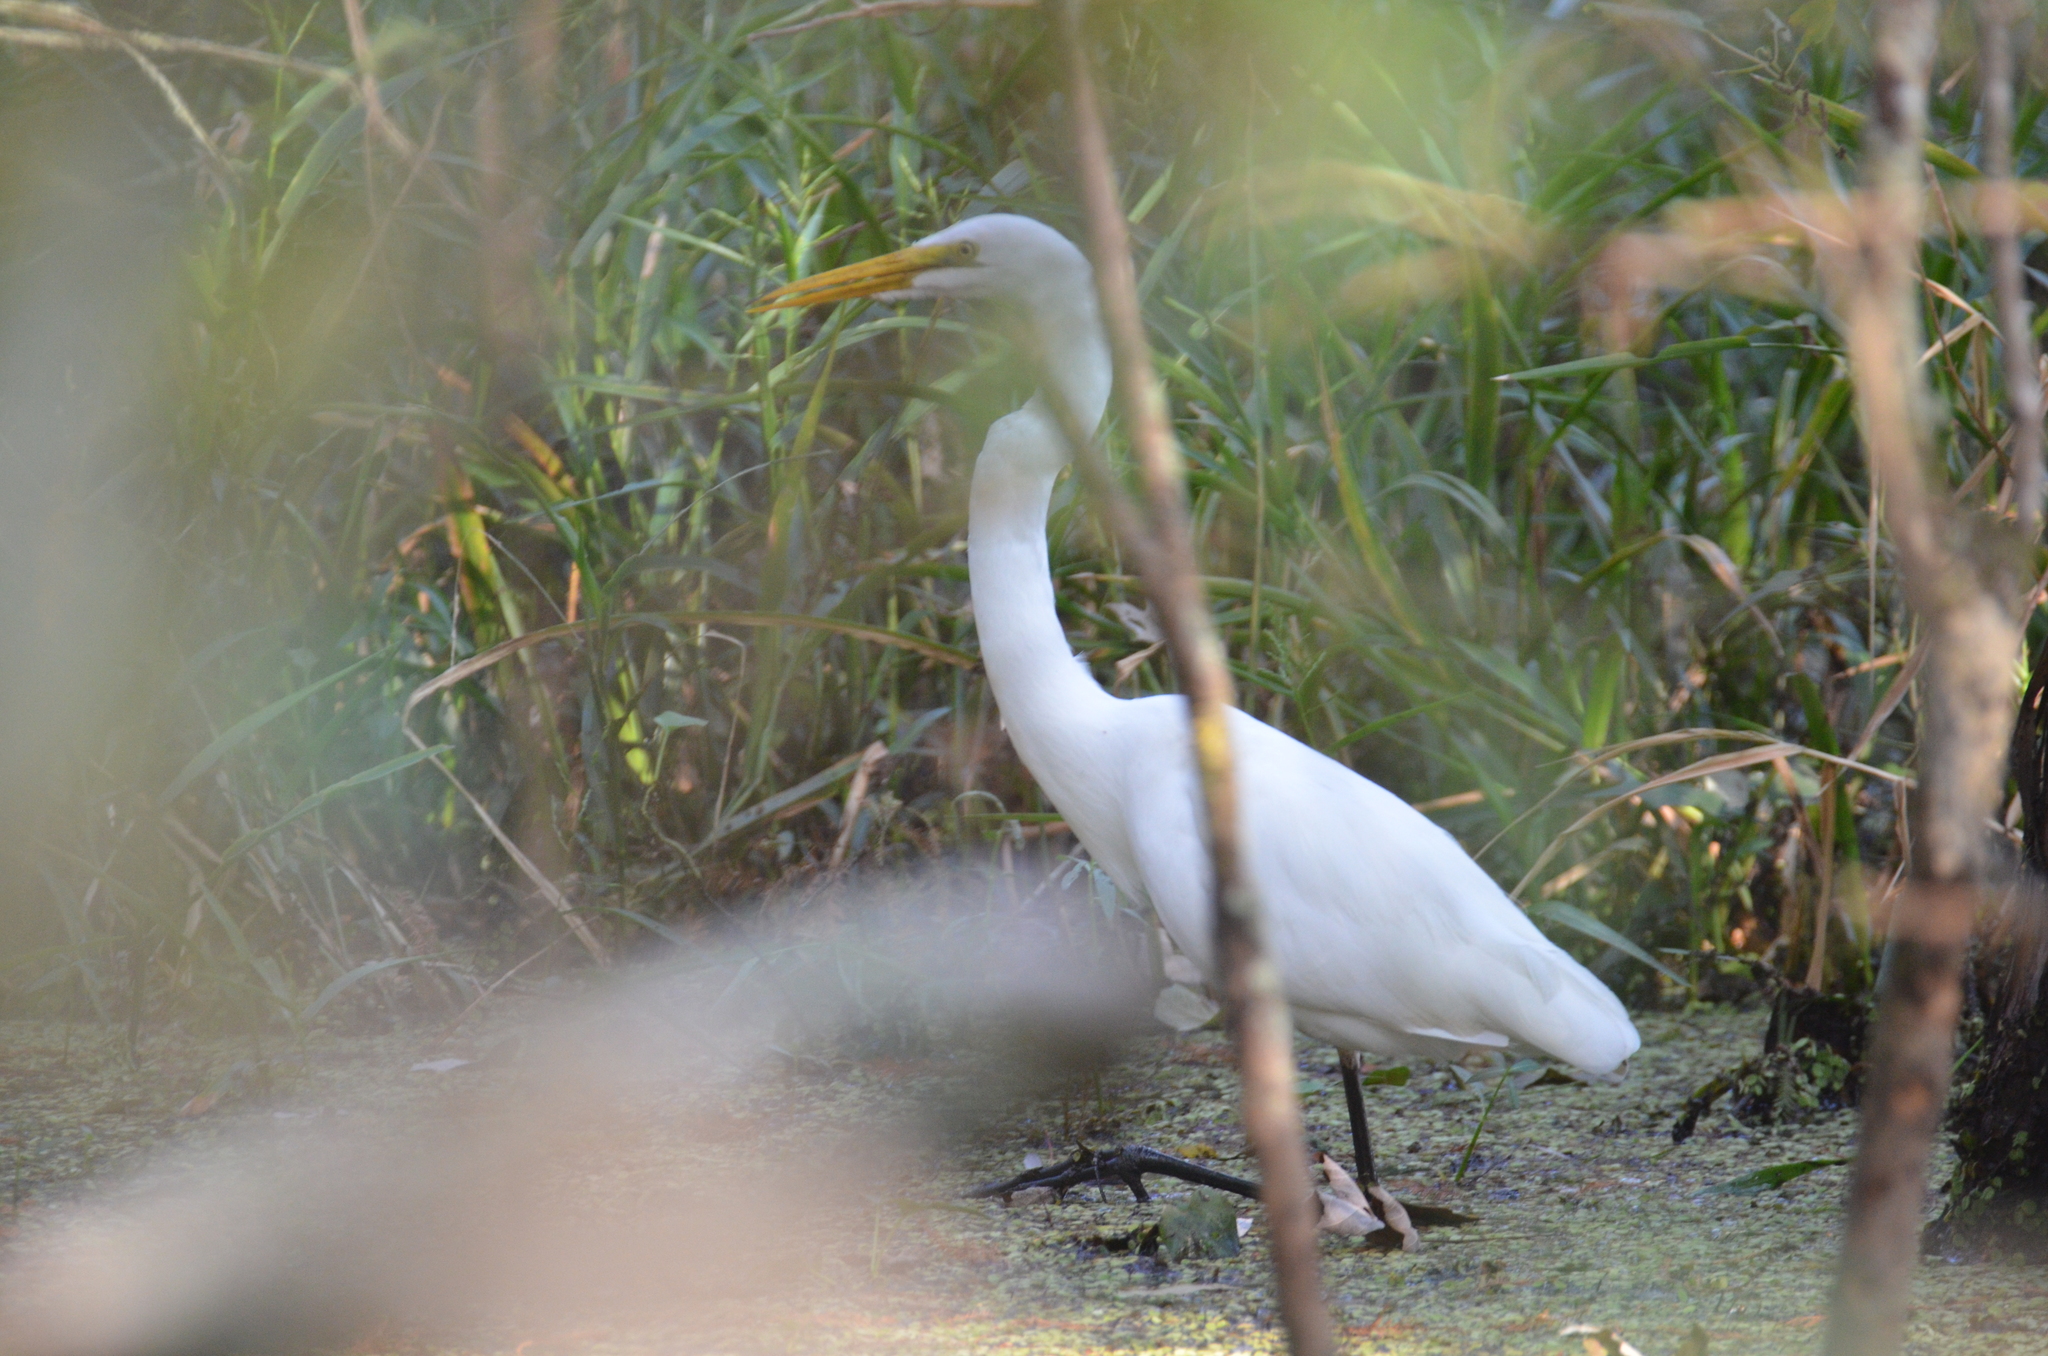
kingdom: Animalia
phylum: Chordata
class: Aves
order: Pelecaniformes
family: Ardeidae
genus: Ardea
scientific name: Ardea alba
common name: Great egret
